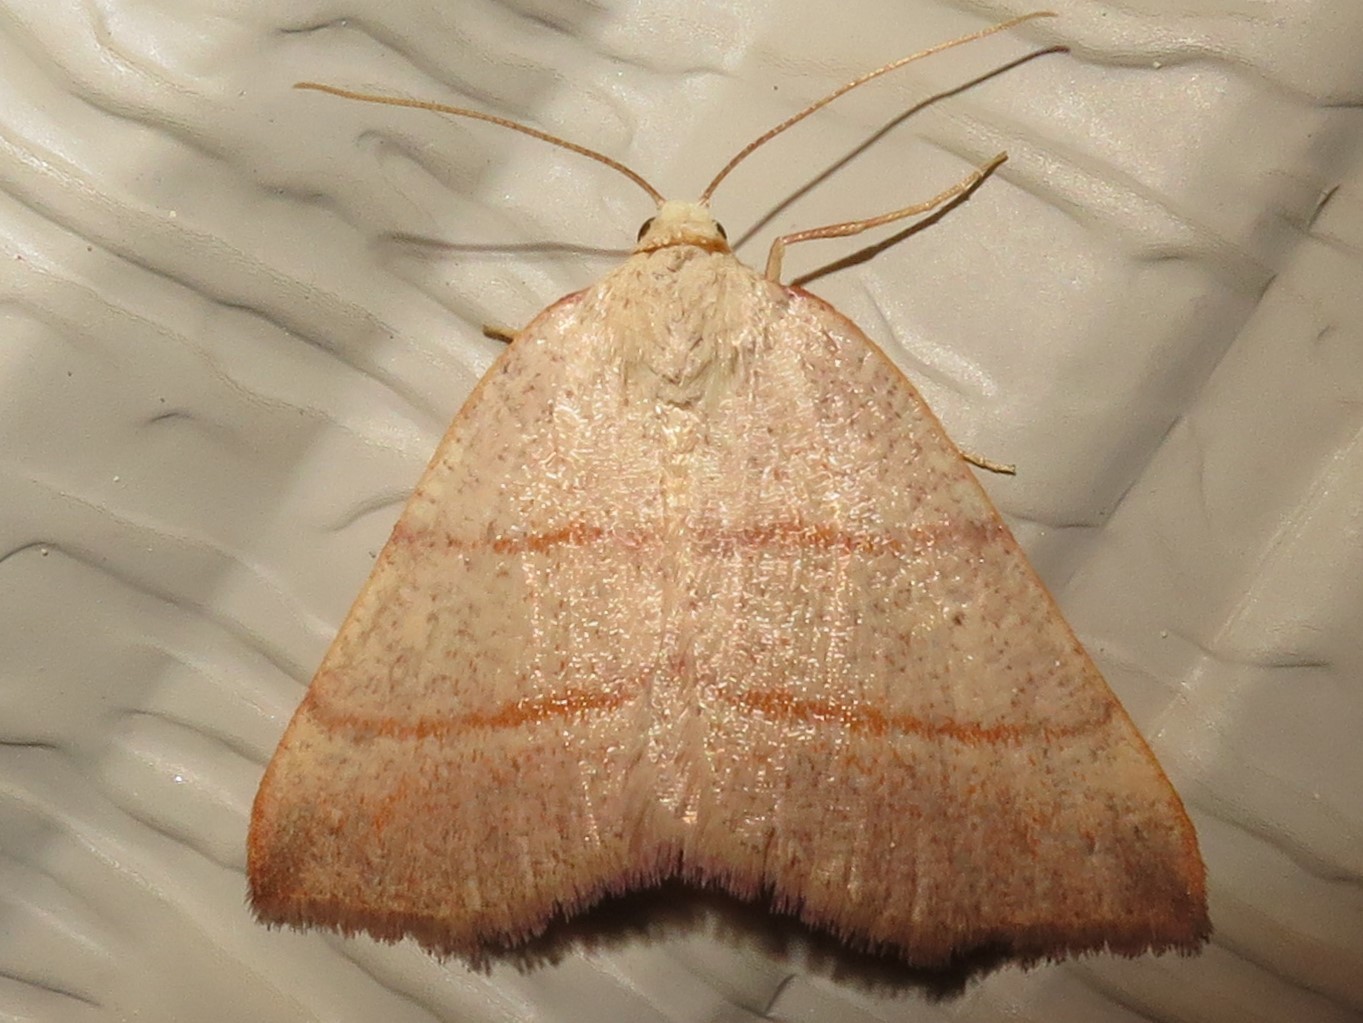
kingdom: Animalia
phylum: Arthropoda
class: Insecta
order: Lepidoptera
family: Geometridae
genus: Destutia
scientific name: Destutia excelsa
